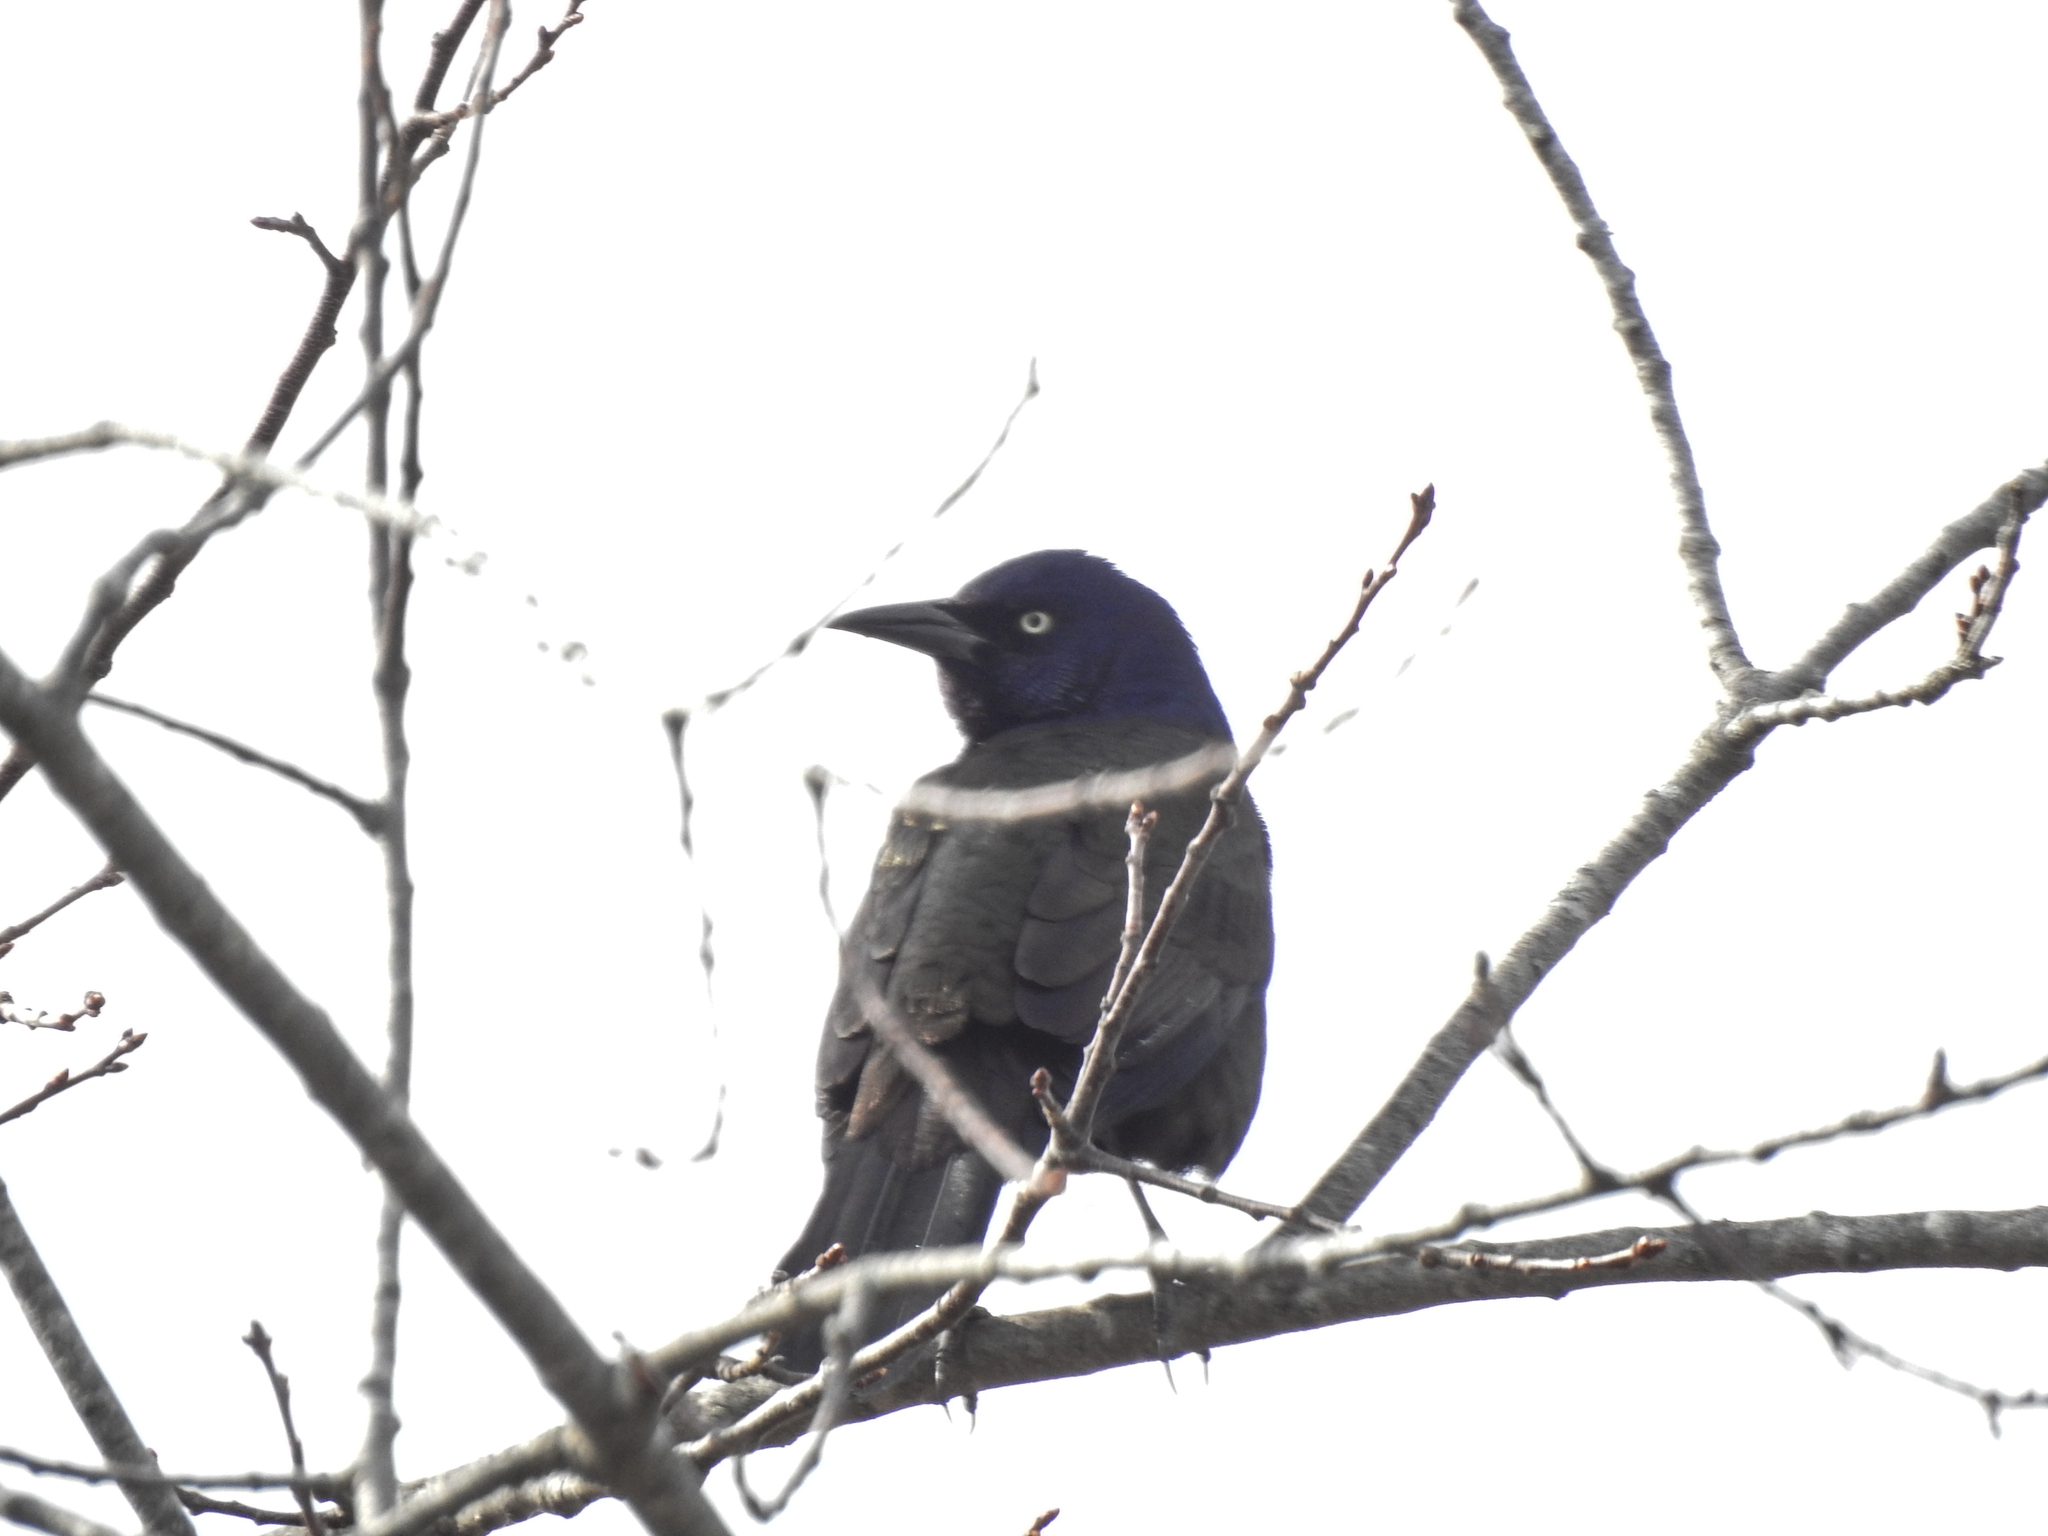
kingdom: Animalia
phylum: Chordata
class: Aves
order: Passeriformes
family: Icteridae
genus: Quiscalus
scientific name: Quiscalus quiscula
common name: Common grackle
